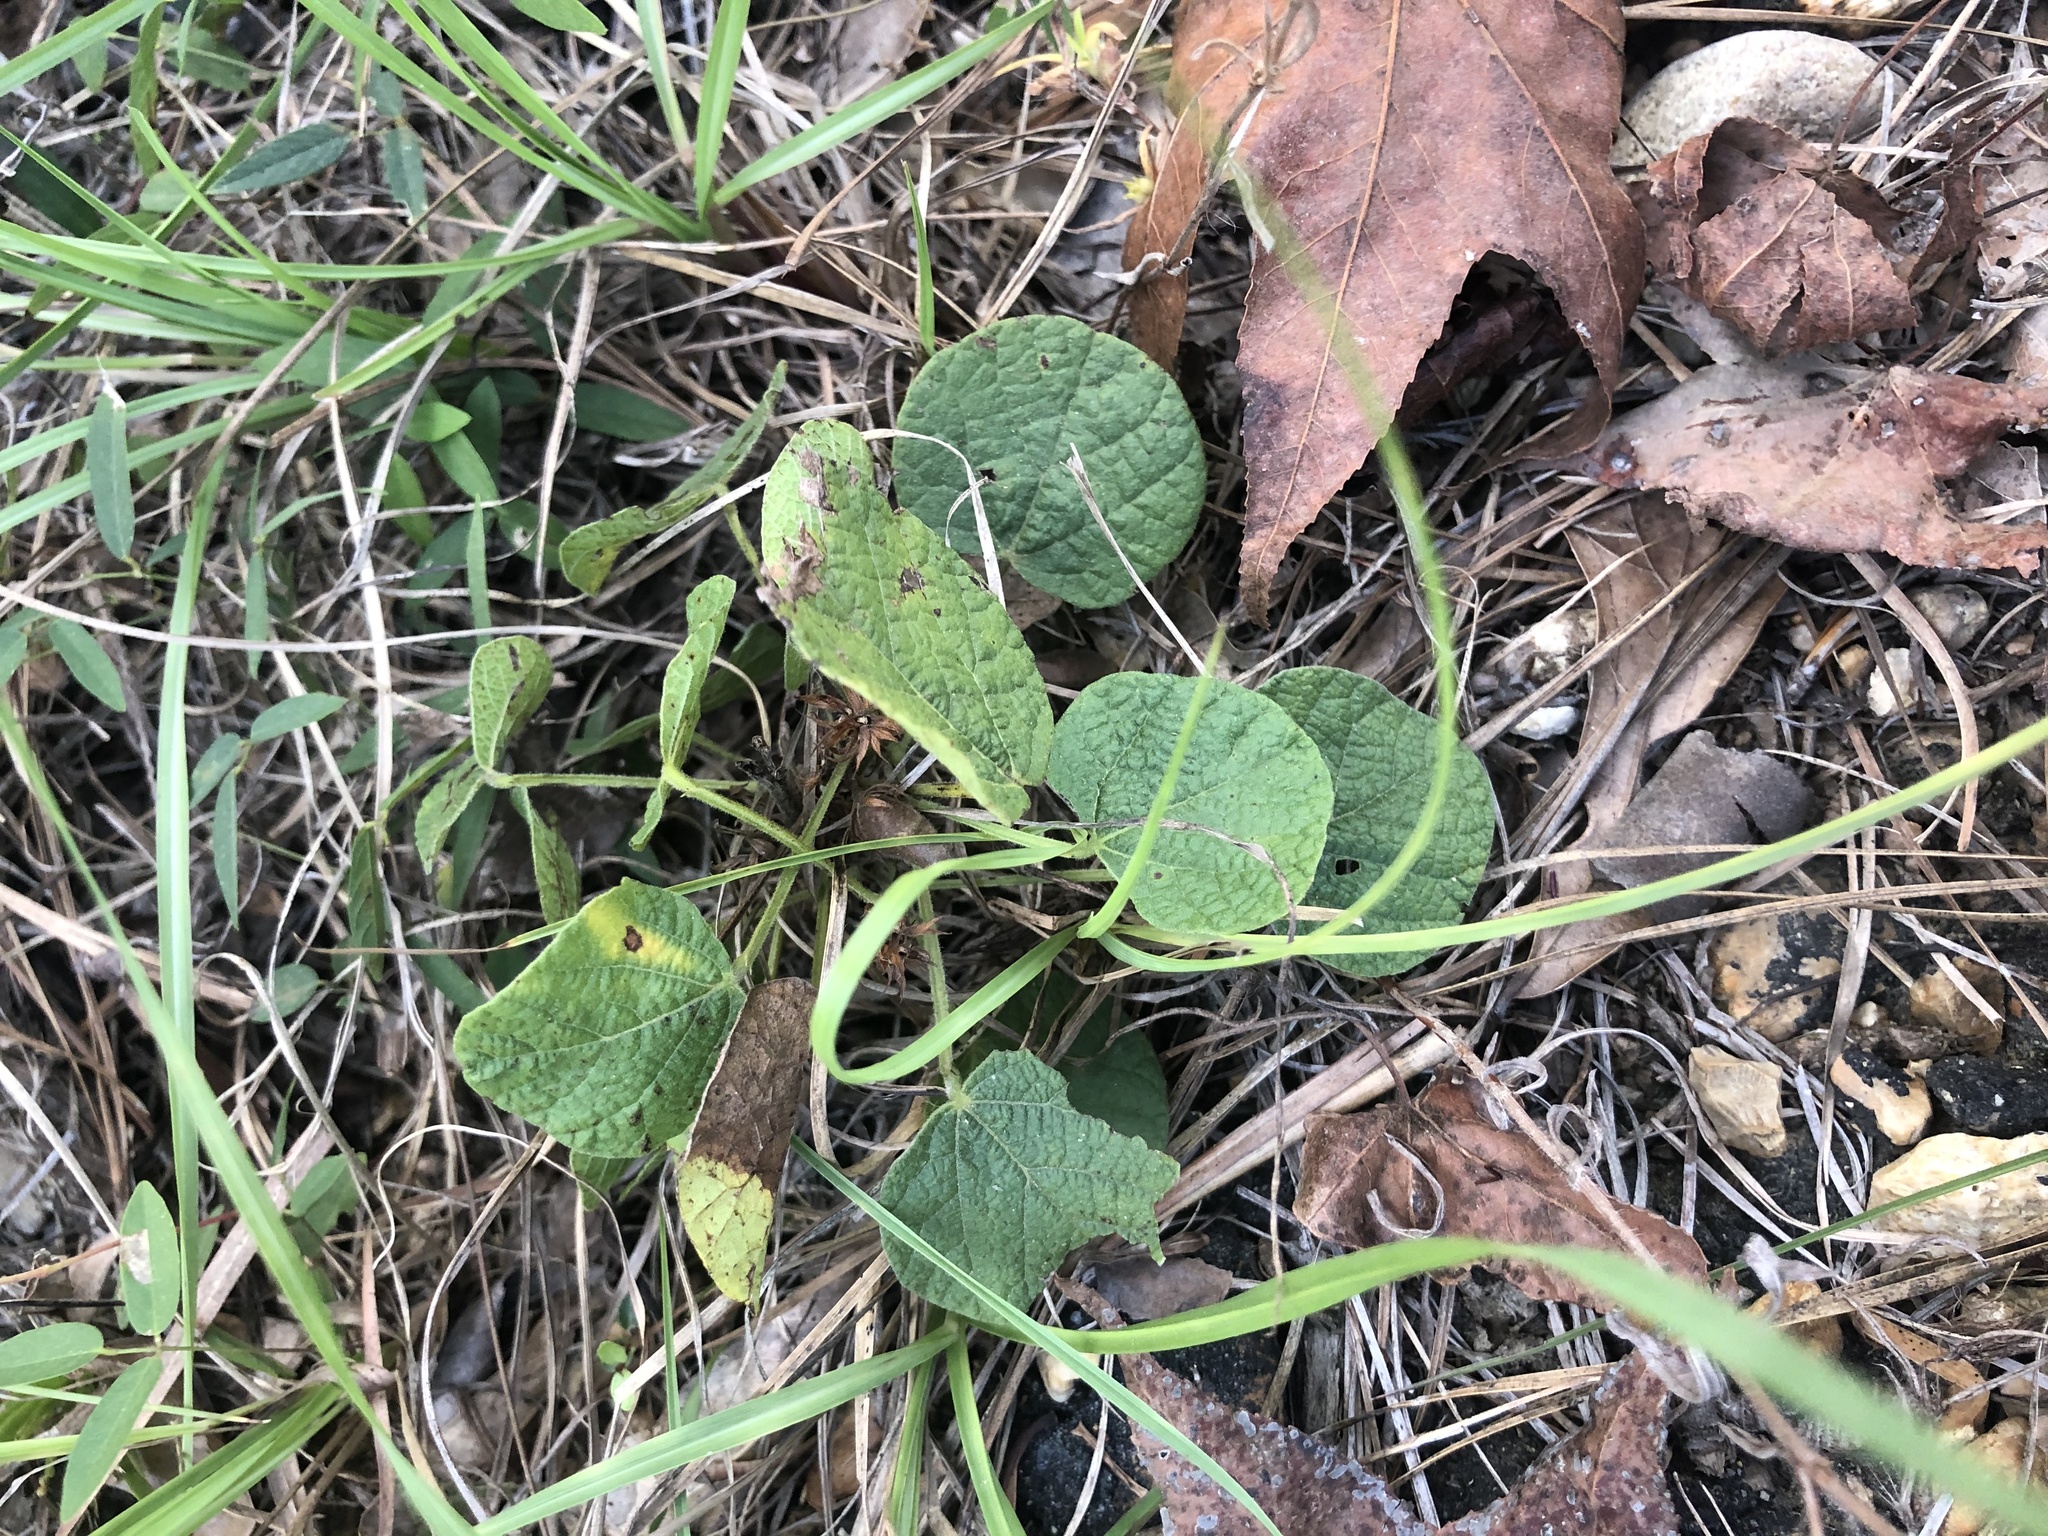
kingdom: Plantae
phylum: Tracheophyta
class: Magnoliopsida
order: Fabales
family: Fabaceae
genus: Rhynchosia
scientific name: Rhynchosia reniformis
